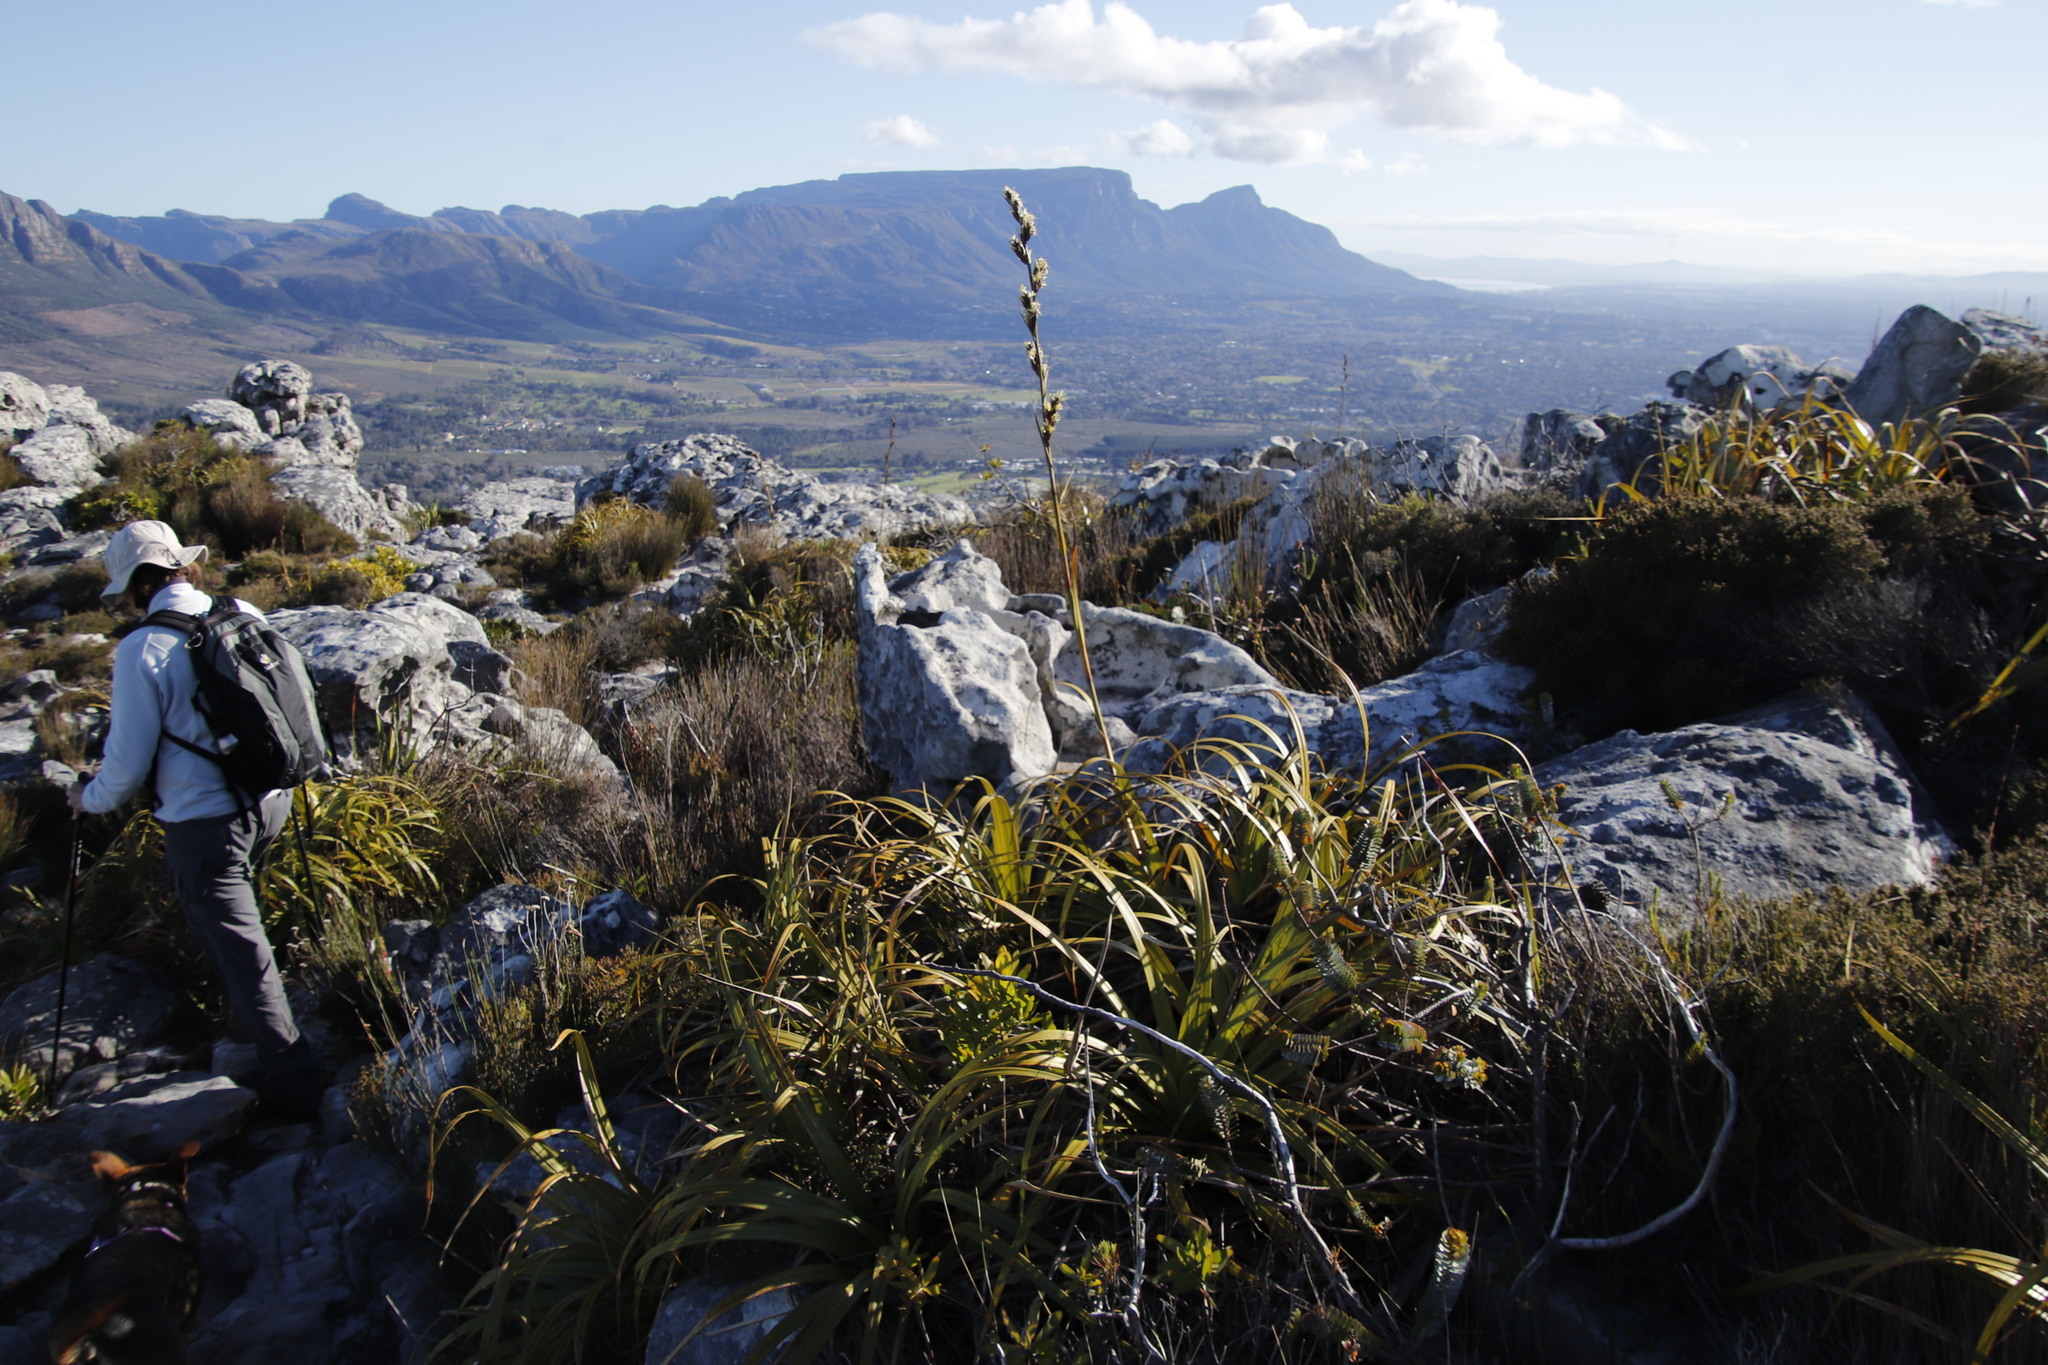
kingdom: Plantae
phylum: Tracheophyta
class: Liliopsida
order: Poales
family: Cyperaceae
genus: Tetraria
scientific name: Tetraria thermalis
